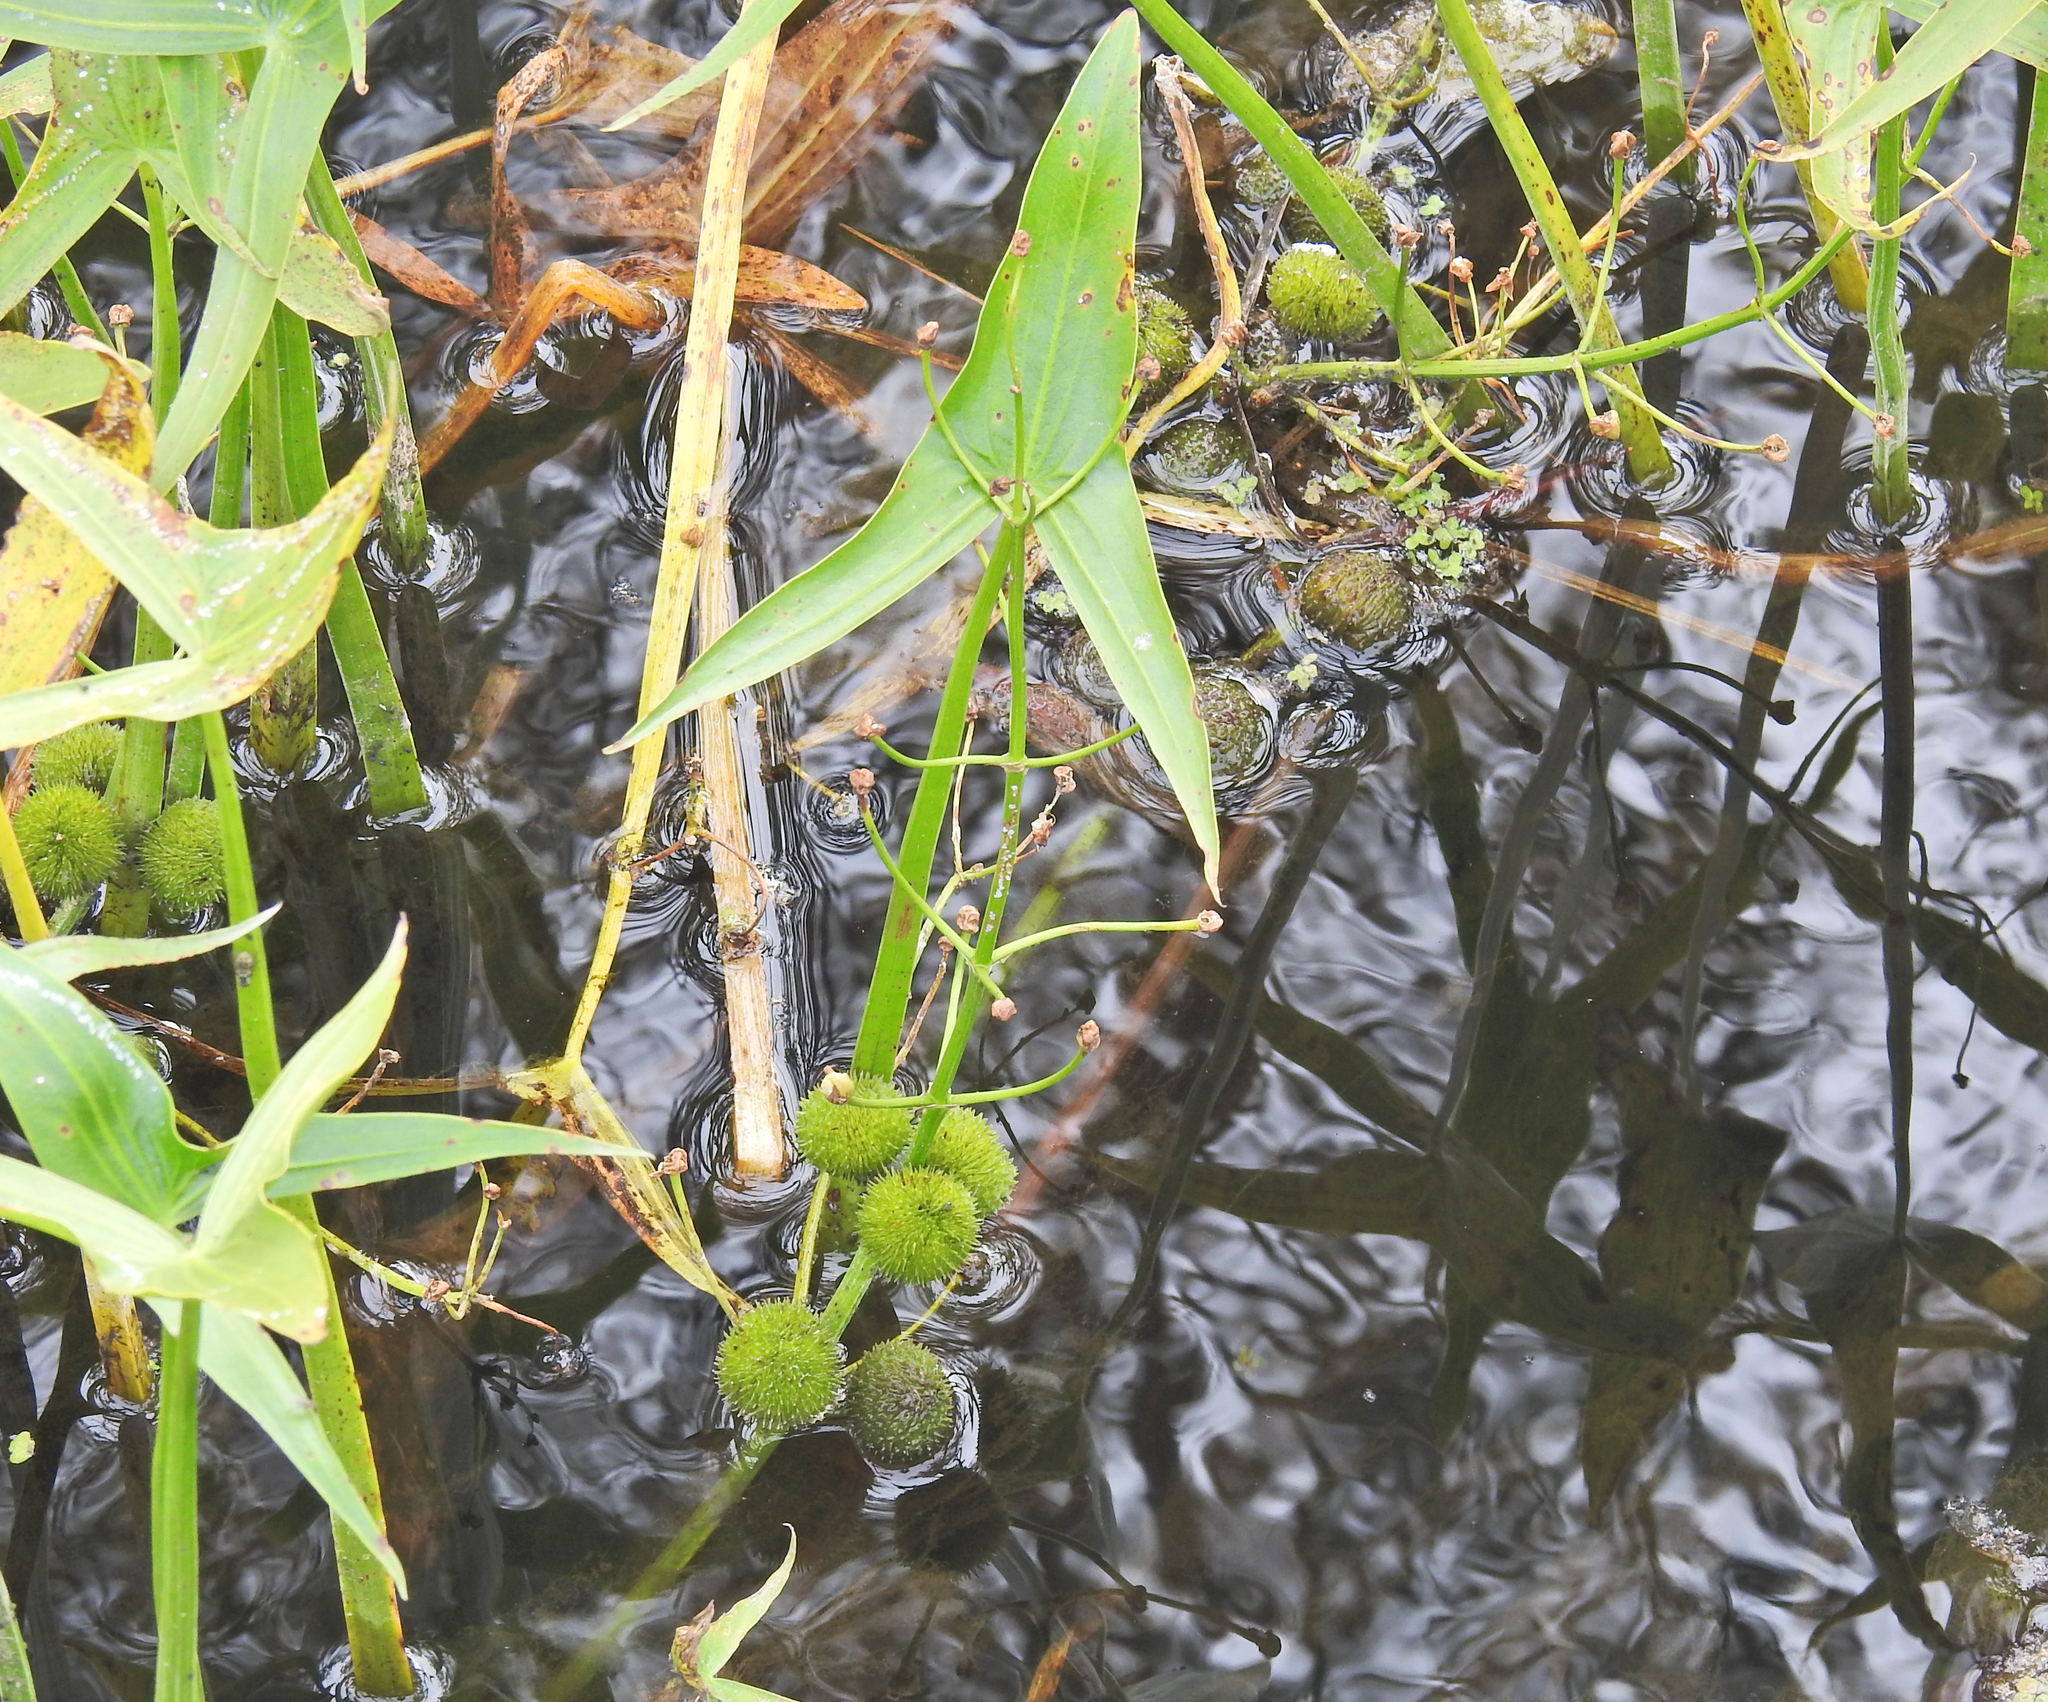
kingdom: Plantae
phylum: Tracheophyta
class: Liliopsida
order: Alismatales
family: Alismataceae
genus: Sagittaria
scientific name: Sagittaria sagittifolia
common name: Arrowhead
